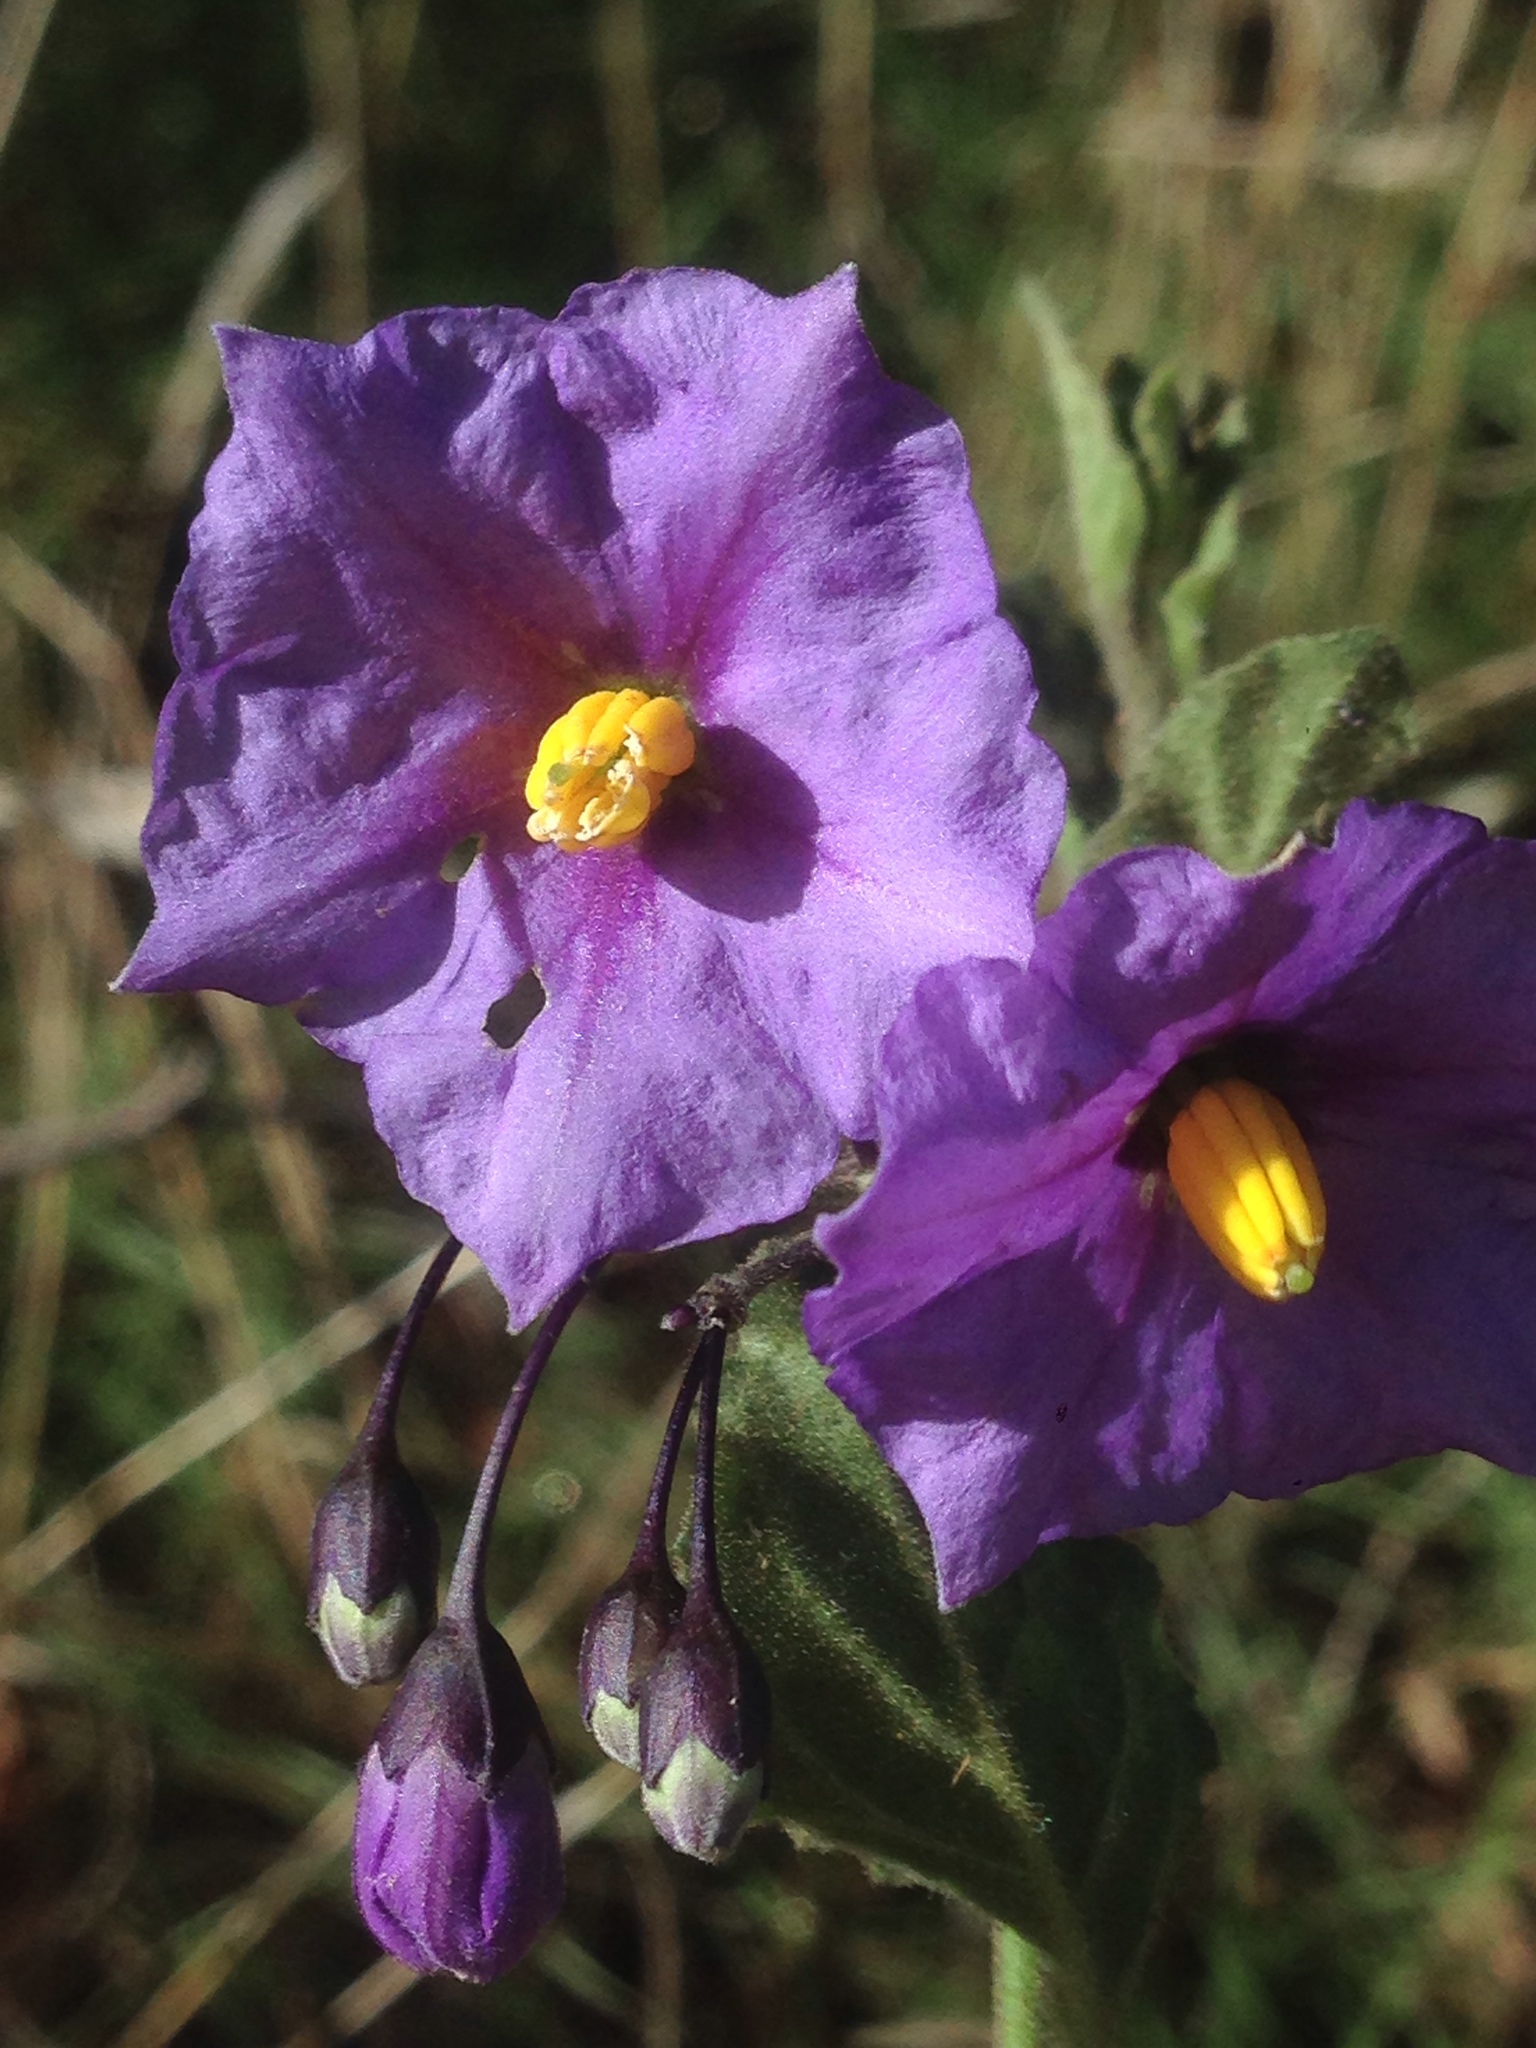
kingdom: Plantae
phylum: Tracheophyta
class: Magnoliopsida
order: Solanales
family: Solanaceae
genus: Solanum
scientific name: Solanum umbelliferum
